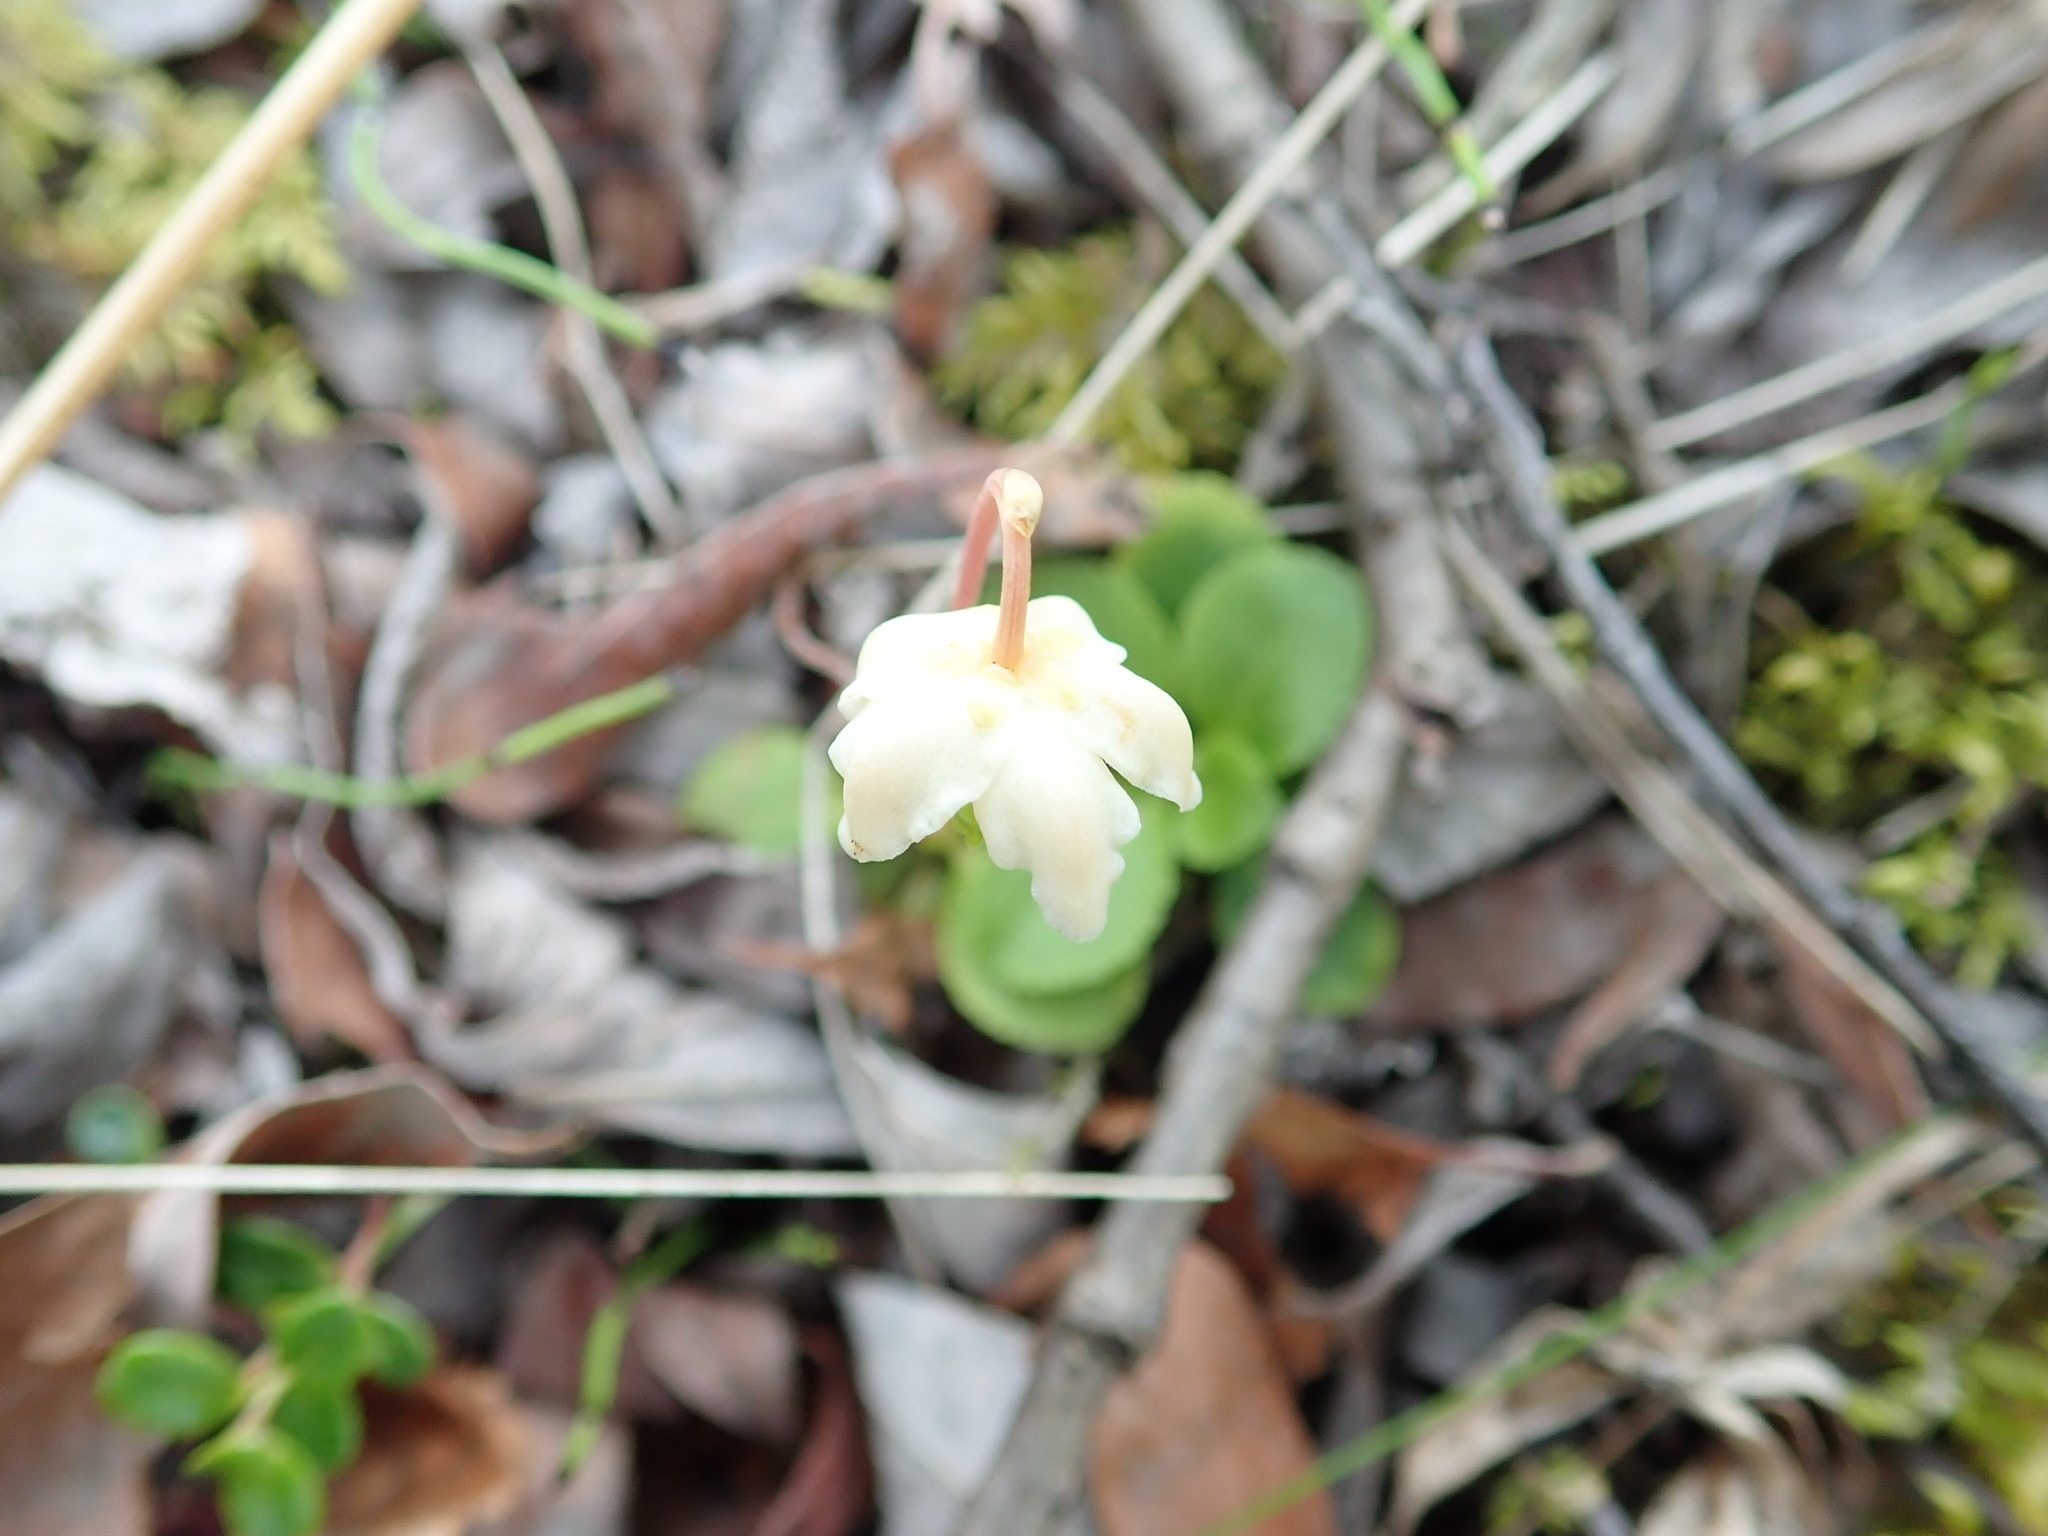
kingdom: Plantae
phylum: Tracheophyta
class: Magnoliopsida
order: Ericales
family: Ericaceae
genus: Moneses
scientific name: Moneses uniflora
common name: One-flowered wintergreen
